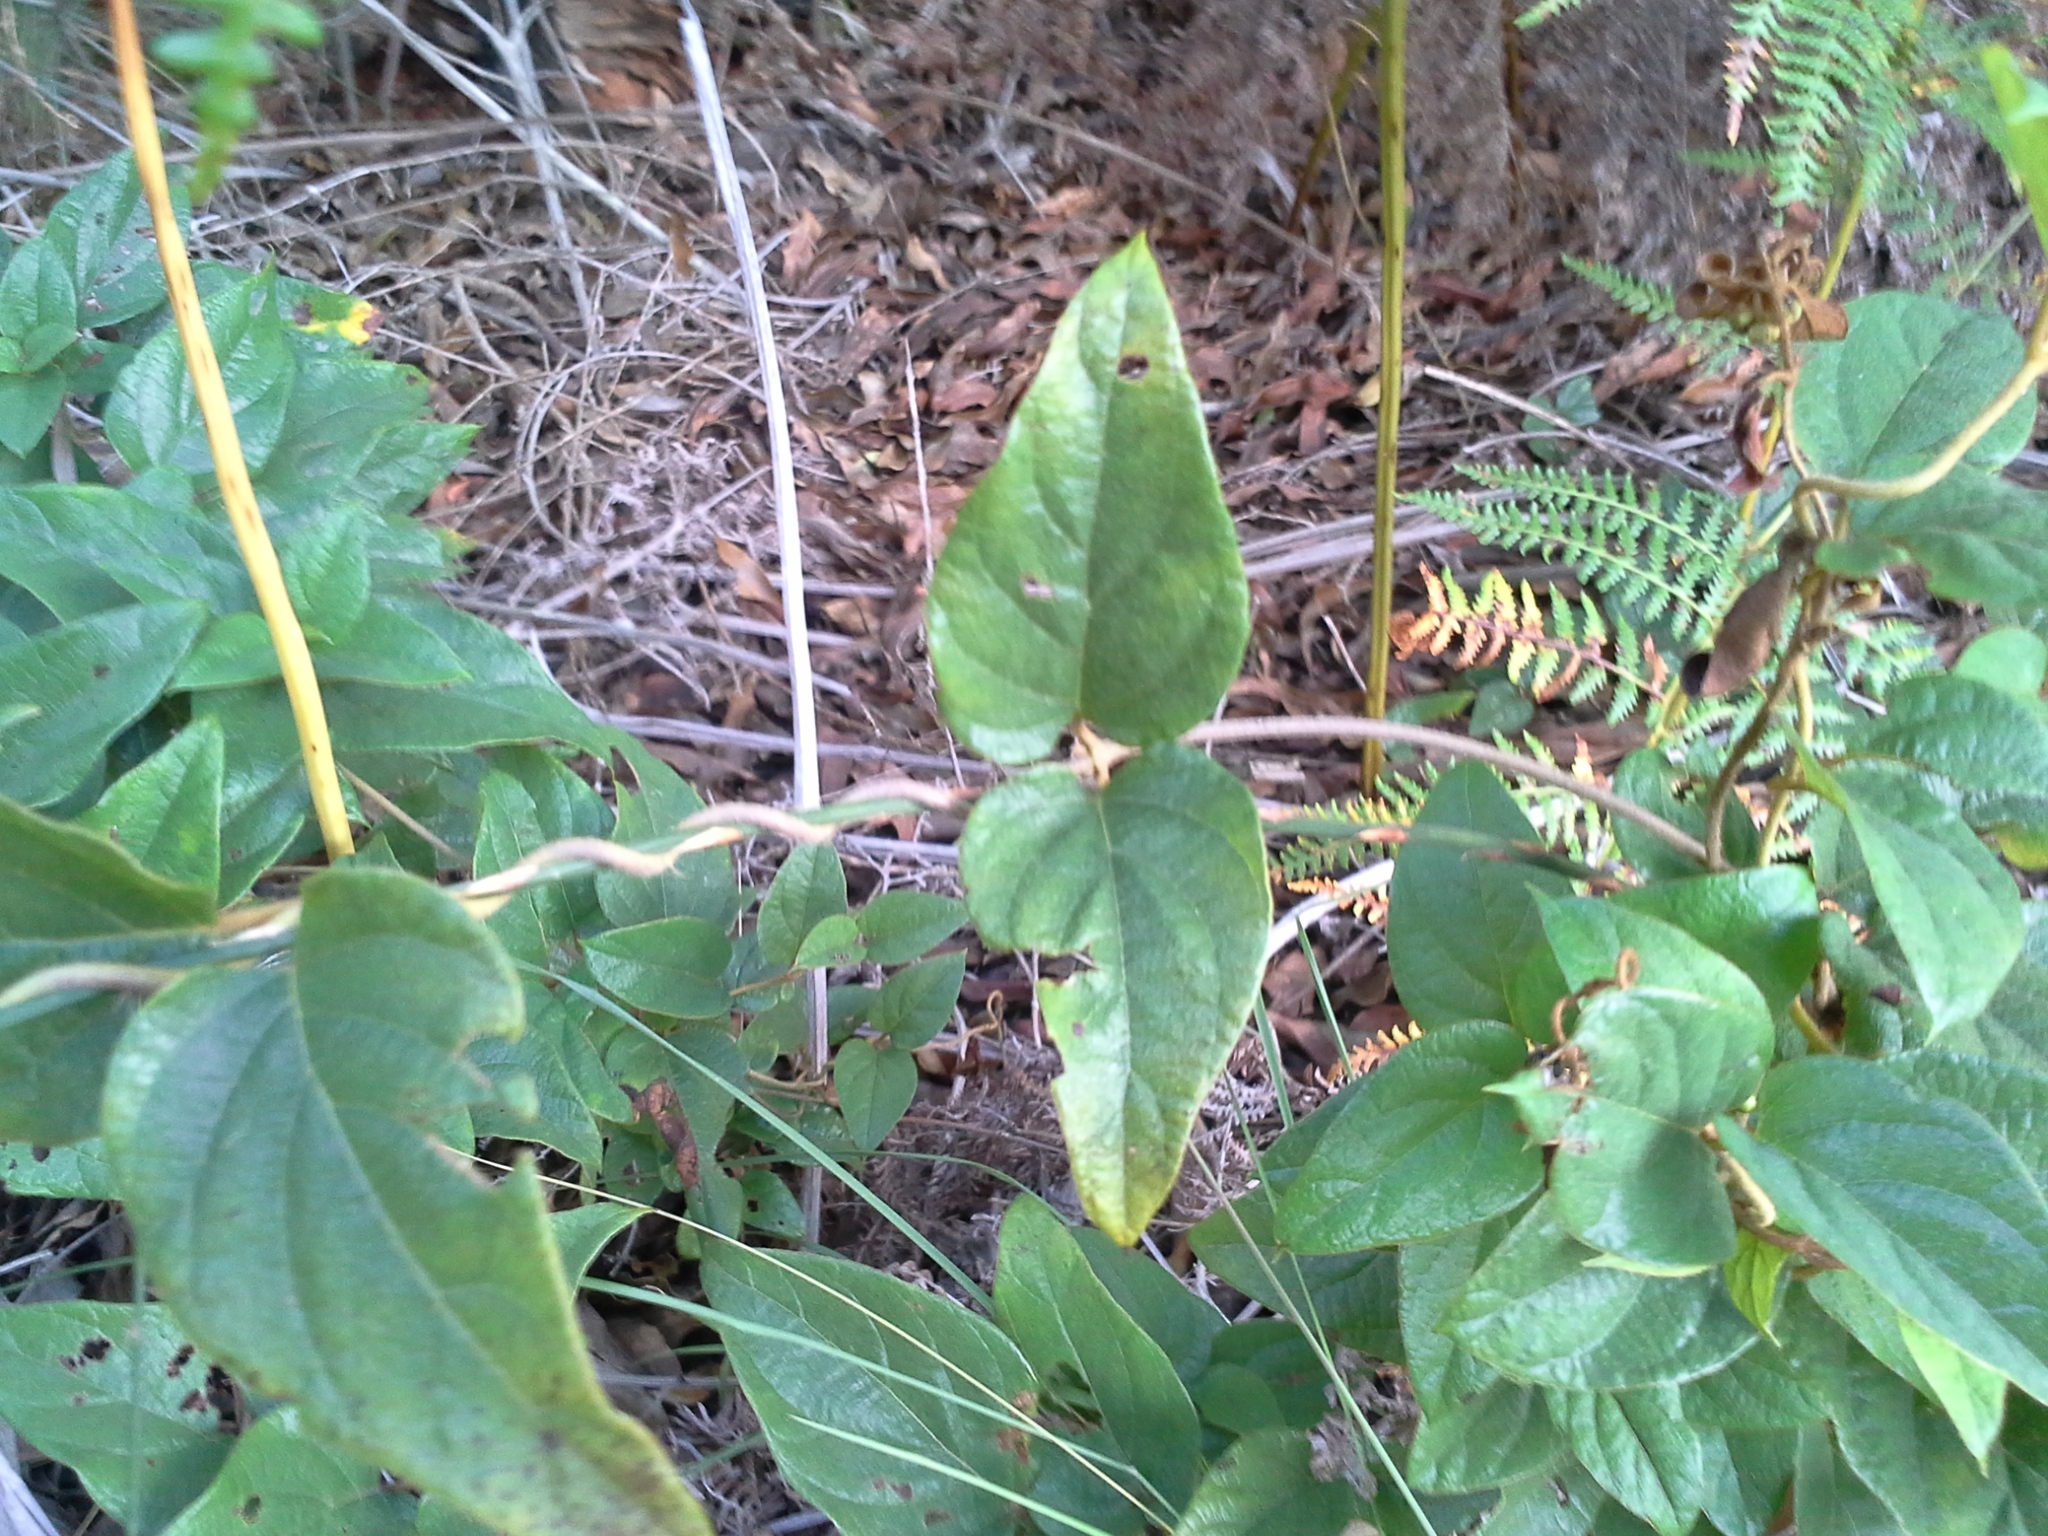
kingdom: Plantae
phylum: Tracheophyta
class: Magnoliopsida
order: Malpighiales
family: Malpighiaceae
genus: Sphedamnocarpus
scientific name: Sphedamnocarpus pruriens
